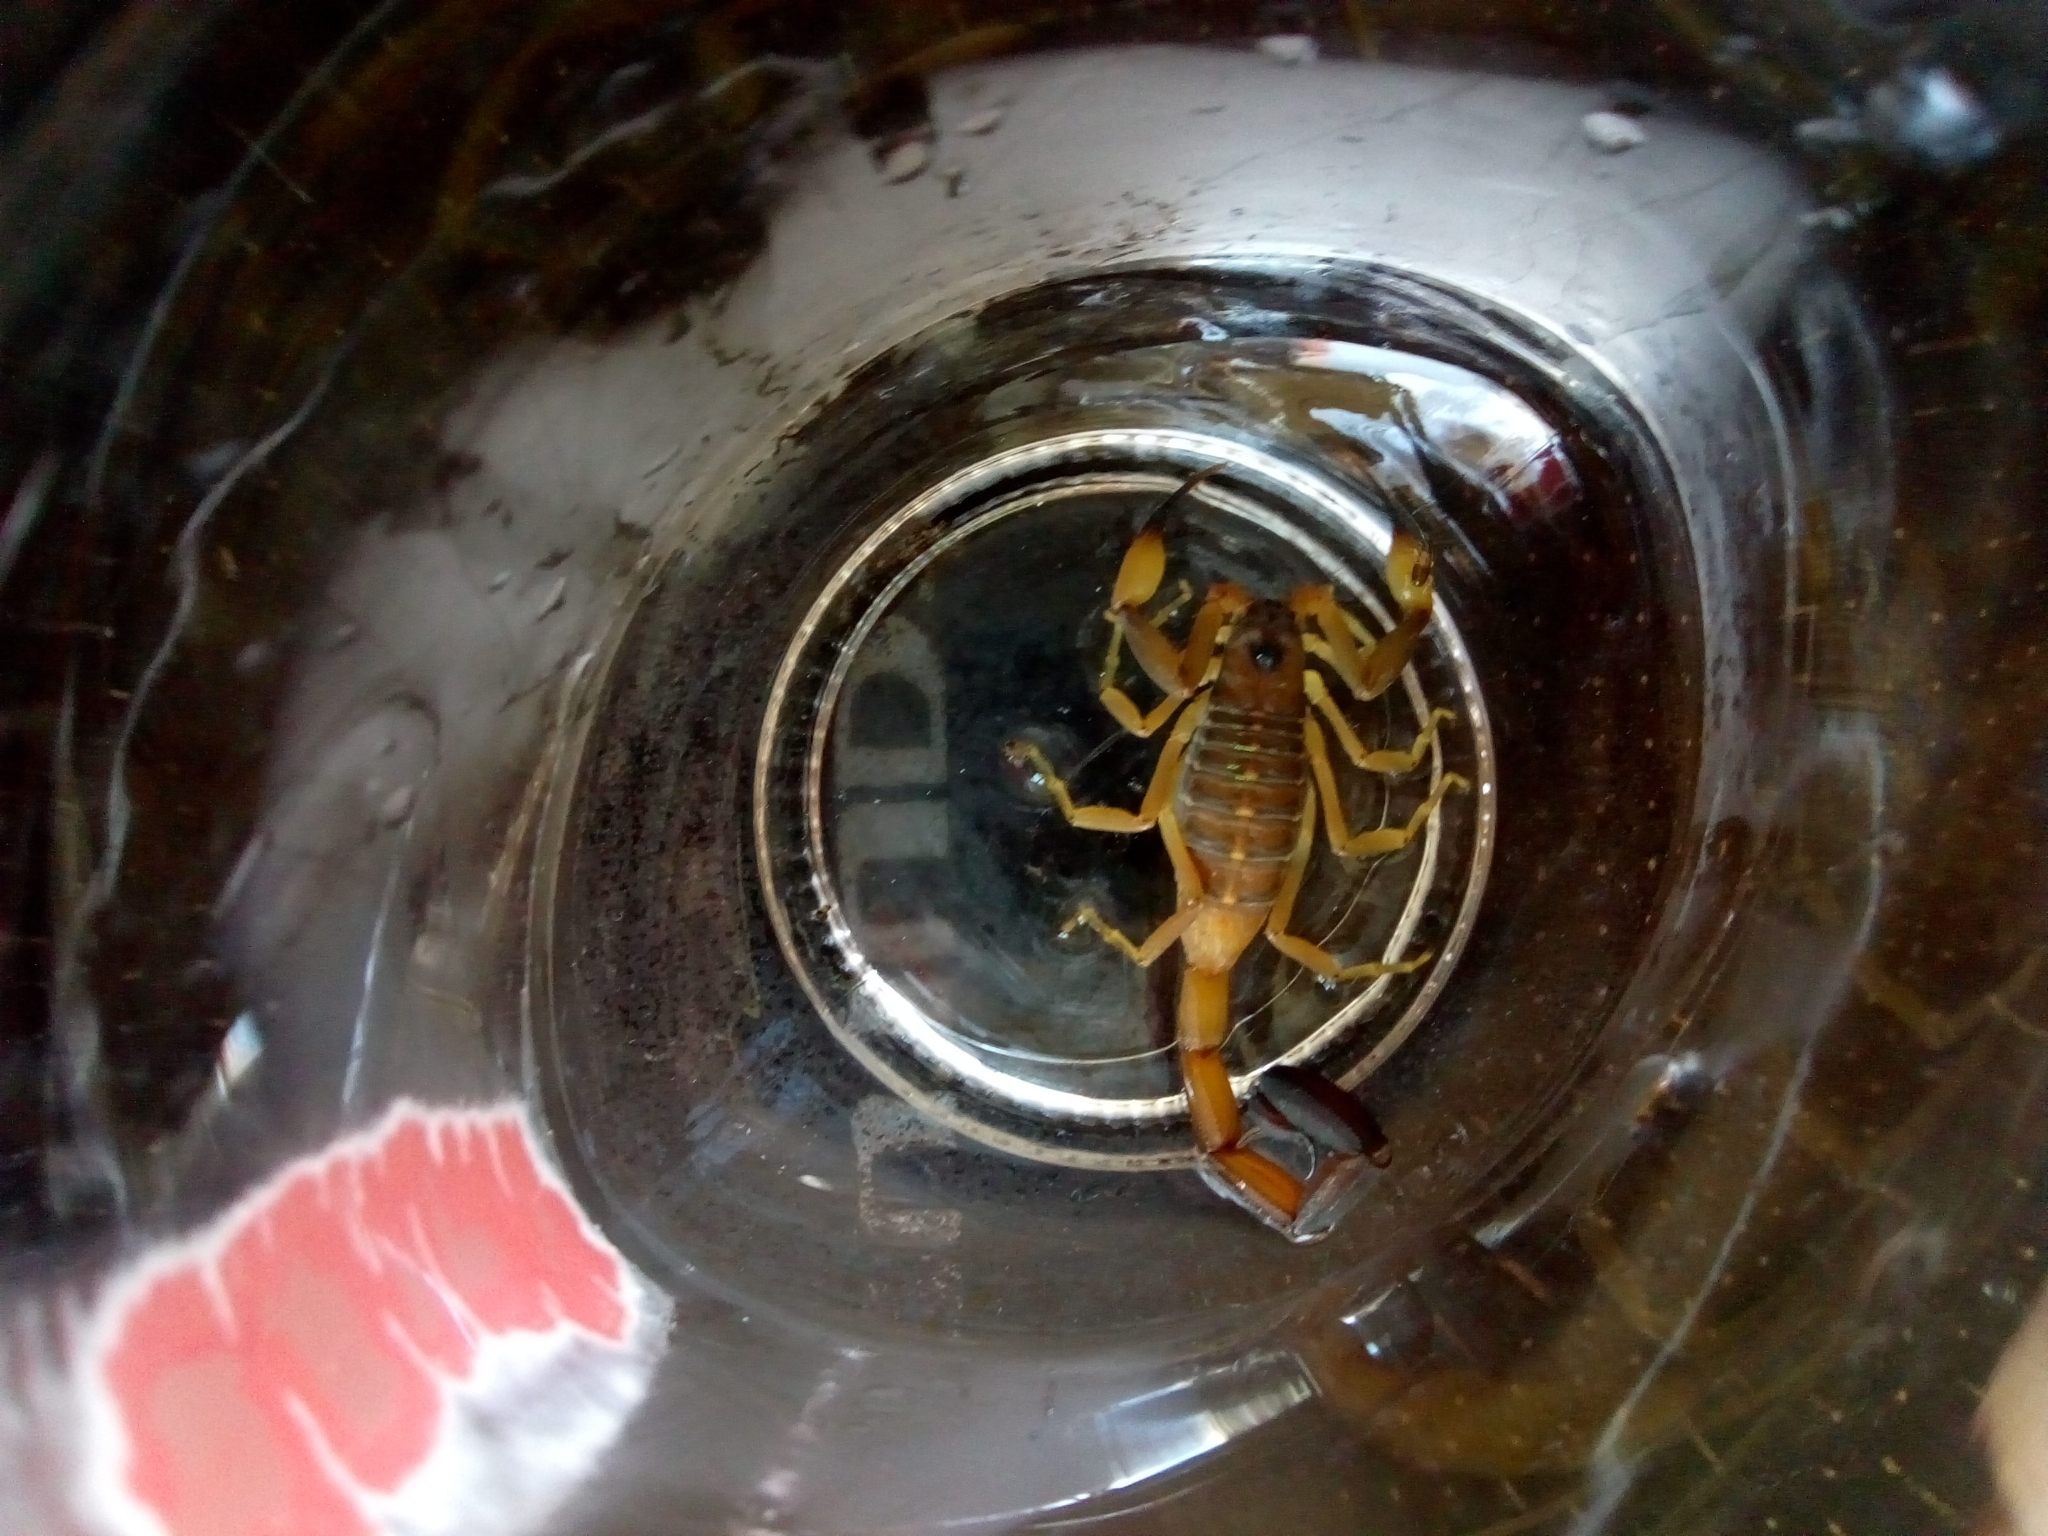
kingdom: Animalia
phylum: Arthropoda
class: Arachnida
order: Scorpiones
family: Buthidae
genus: Centruroides
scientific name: Centruroides flavopictus
